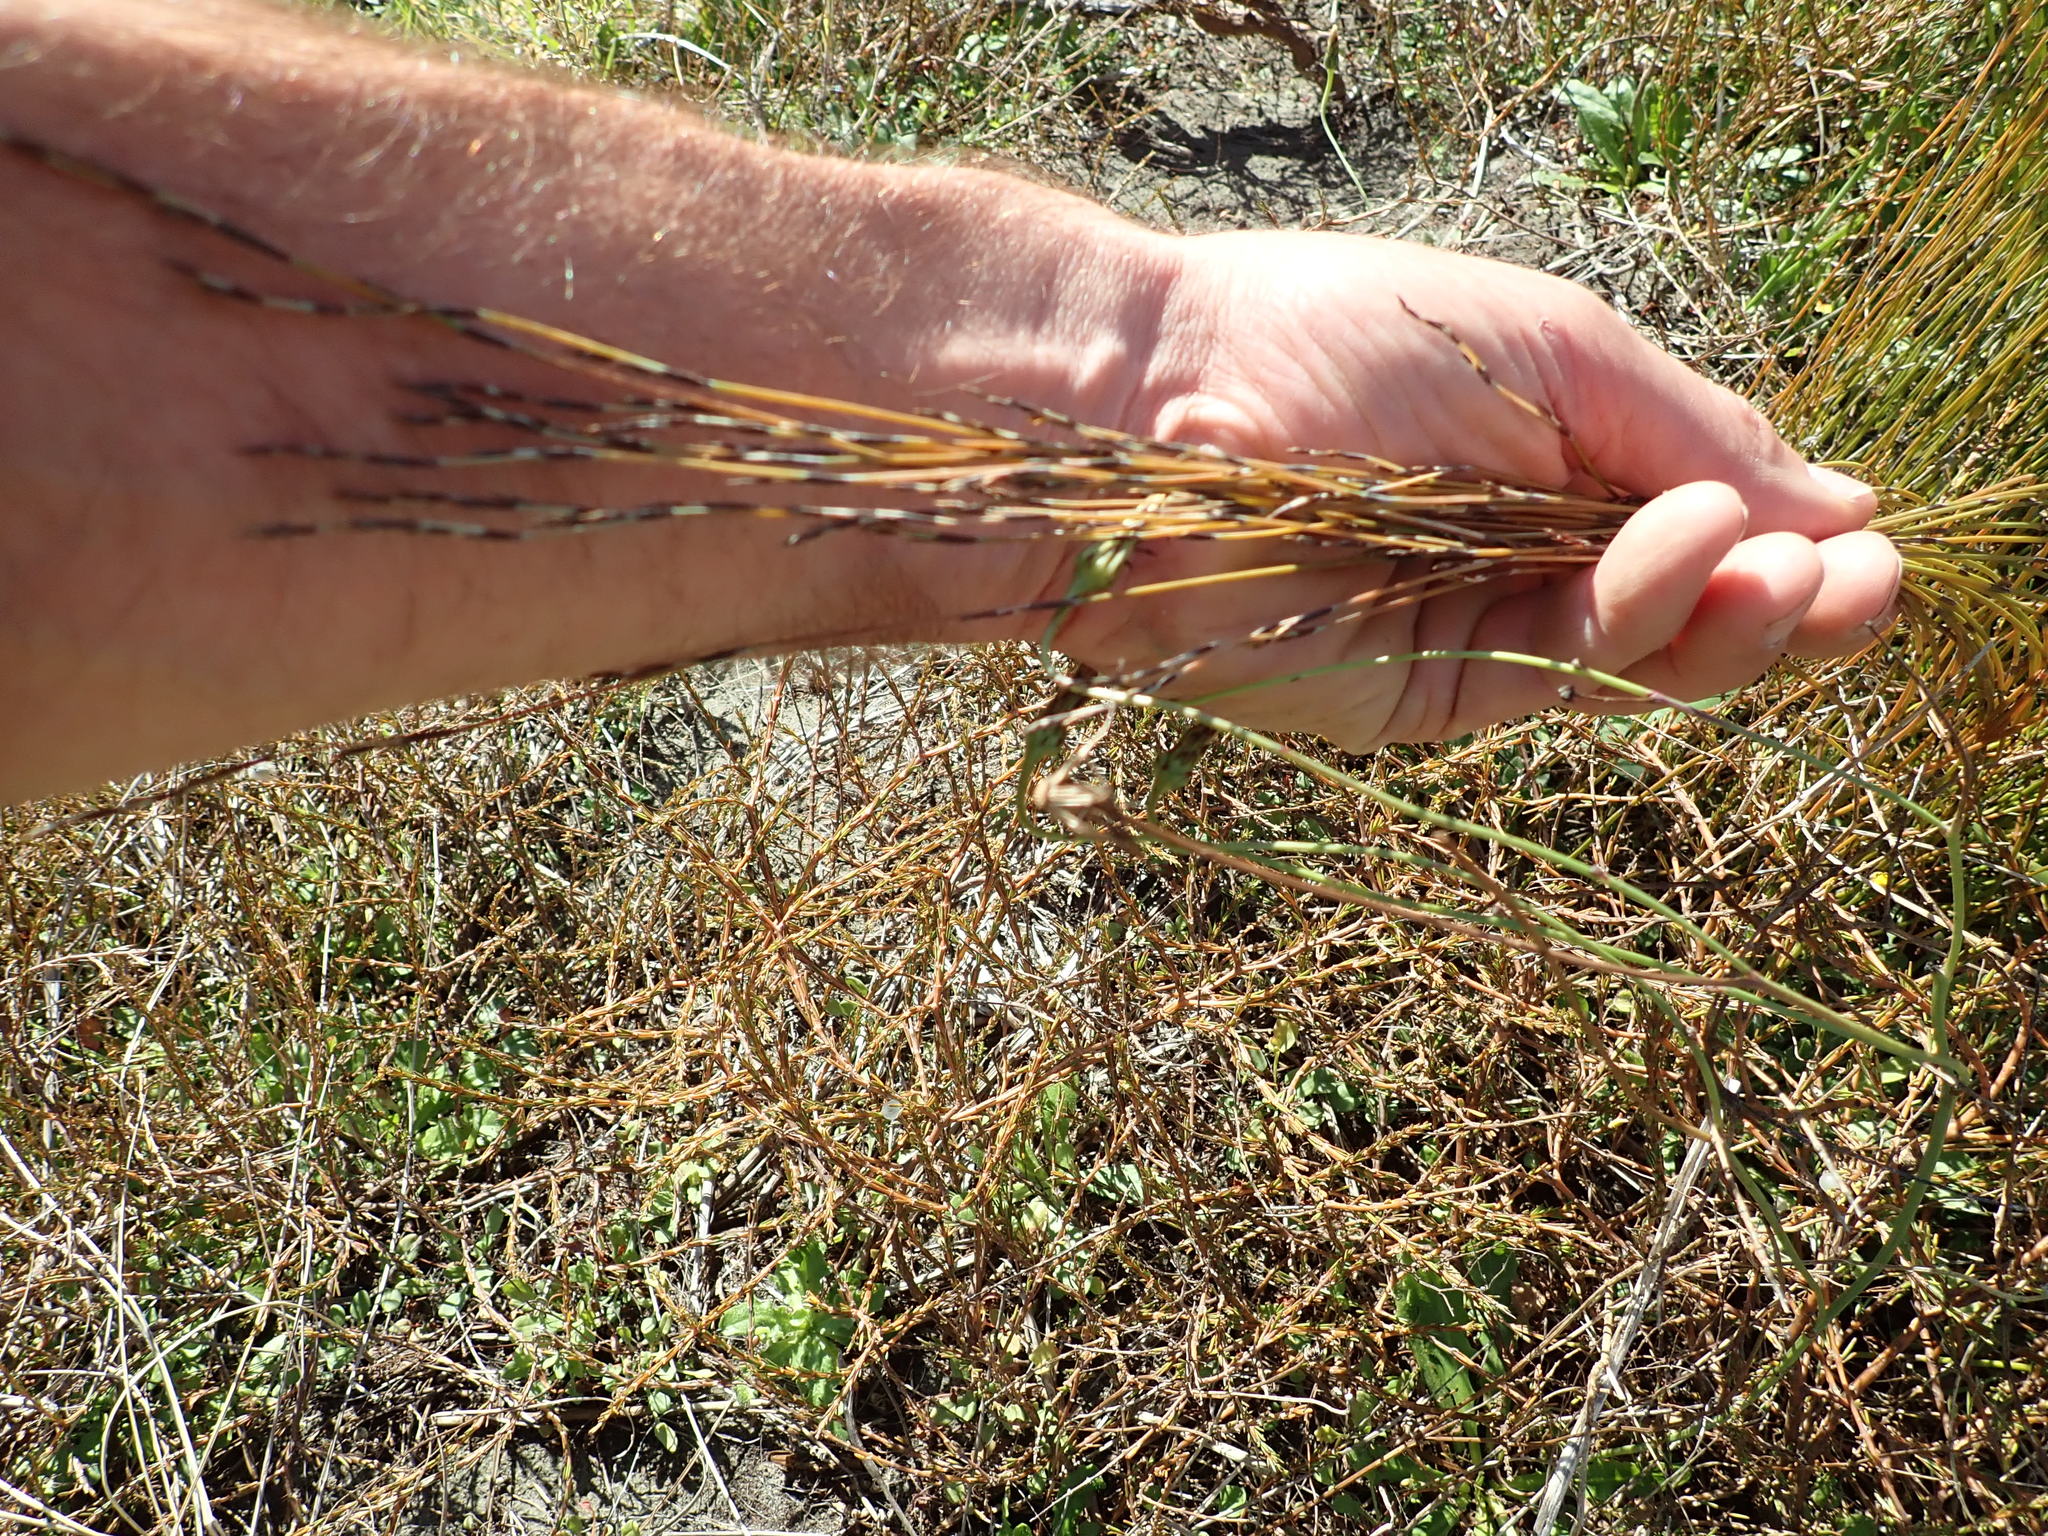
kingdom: Plantae
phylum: Tracheophyta
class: Liliopsida
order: Poales
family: Restionaceae
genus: Apodasmia
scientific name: Apodasmia similis
